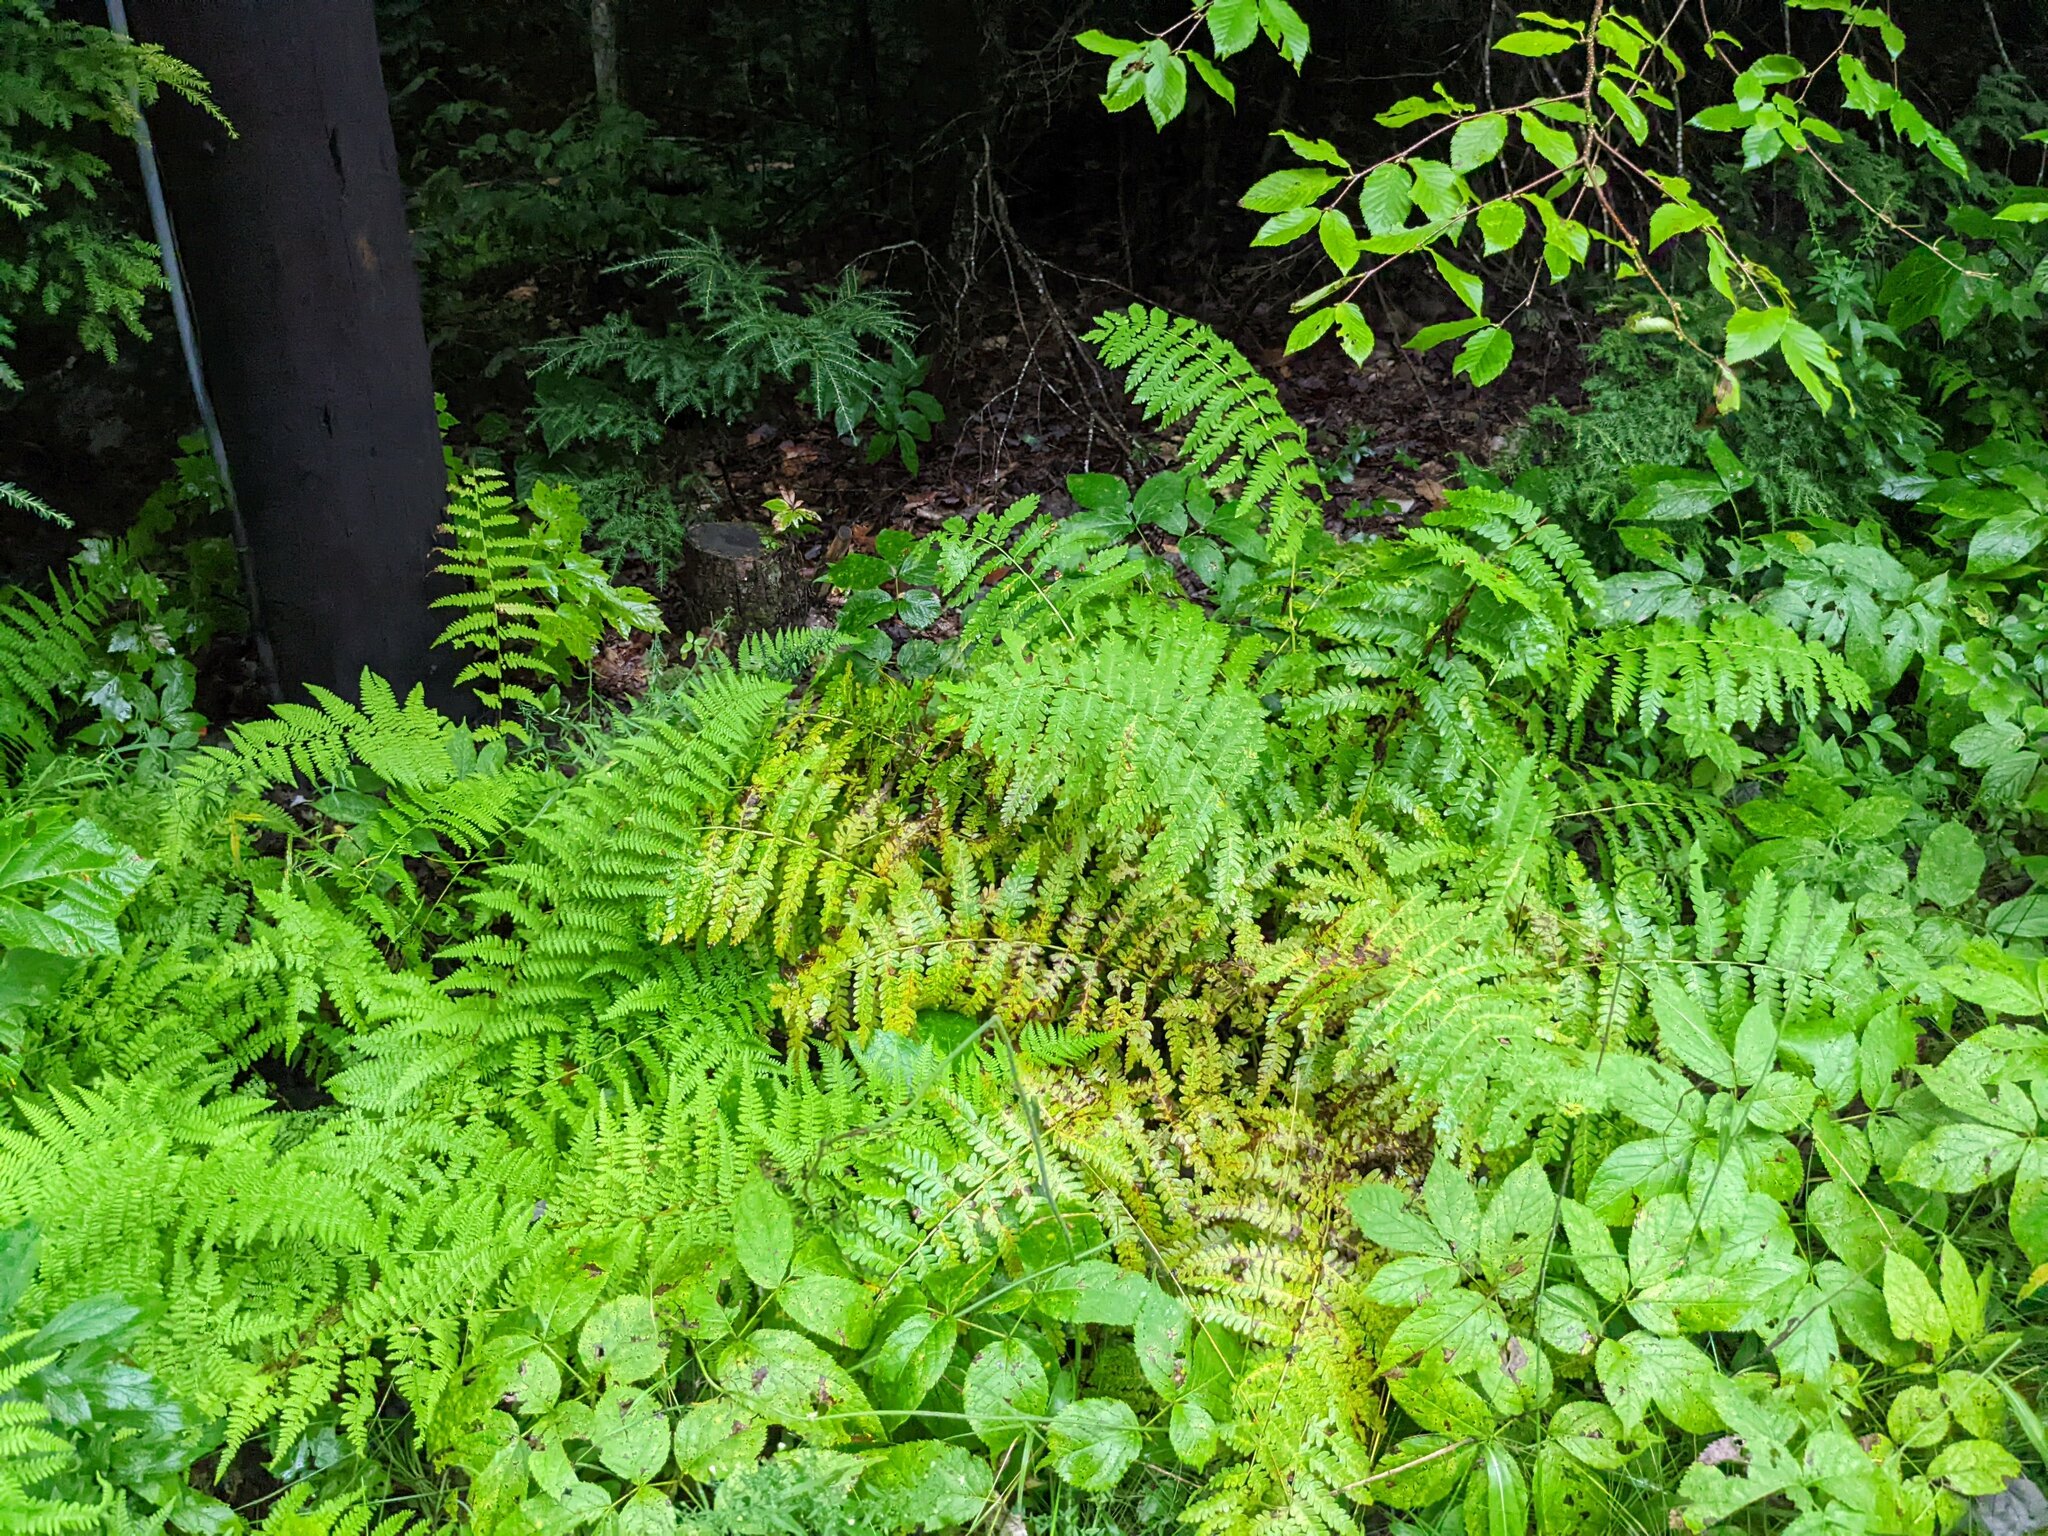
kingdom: Plantae
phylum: Tracheophyta
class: Polypodiopsida
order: Osmundales
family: Osmundaceae
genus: Claytosmunda
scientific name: Claytosmunda claytoniana
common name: Clayton's fern
